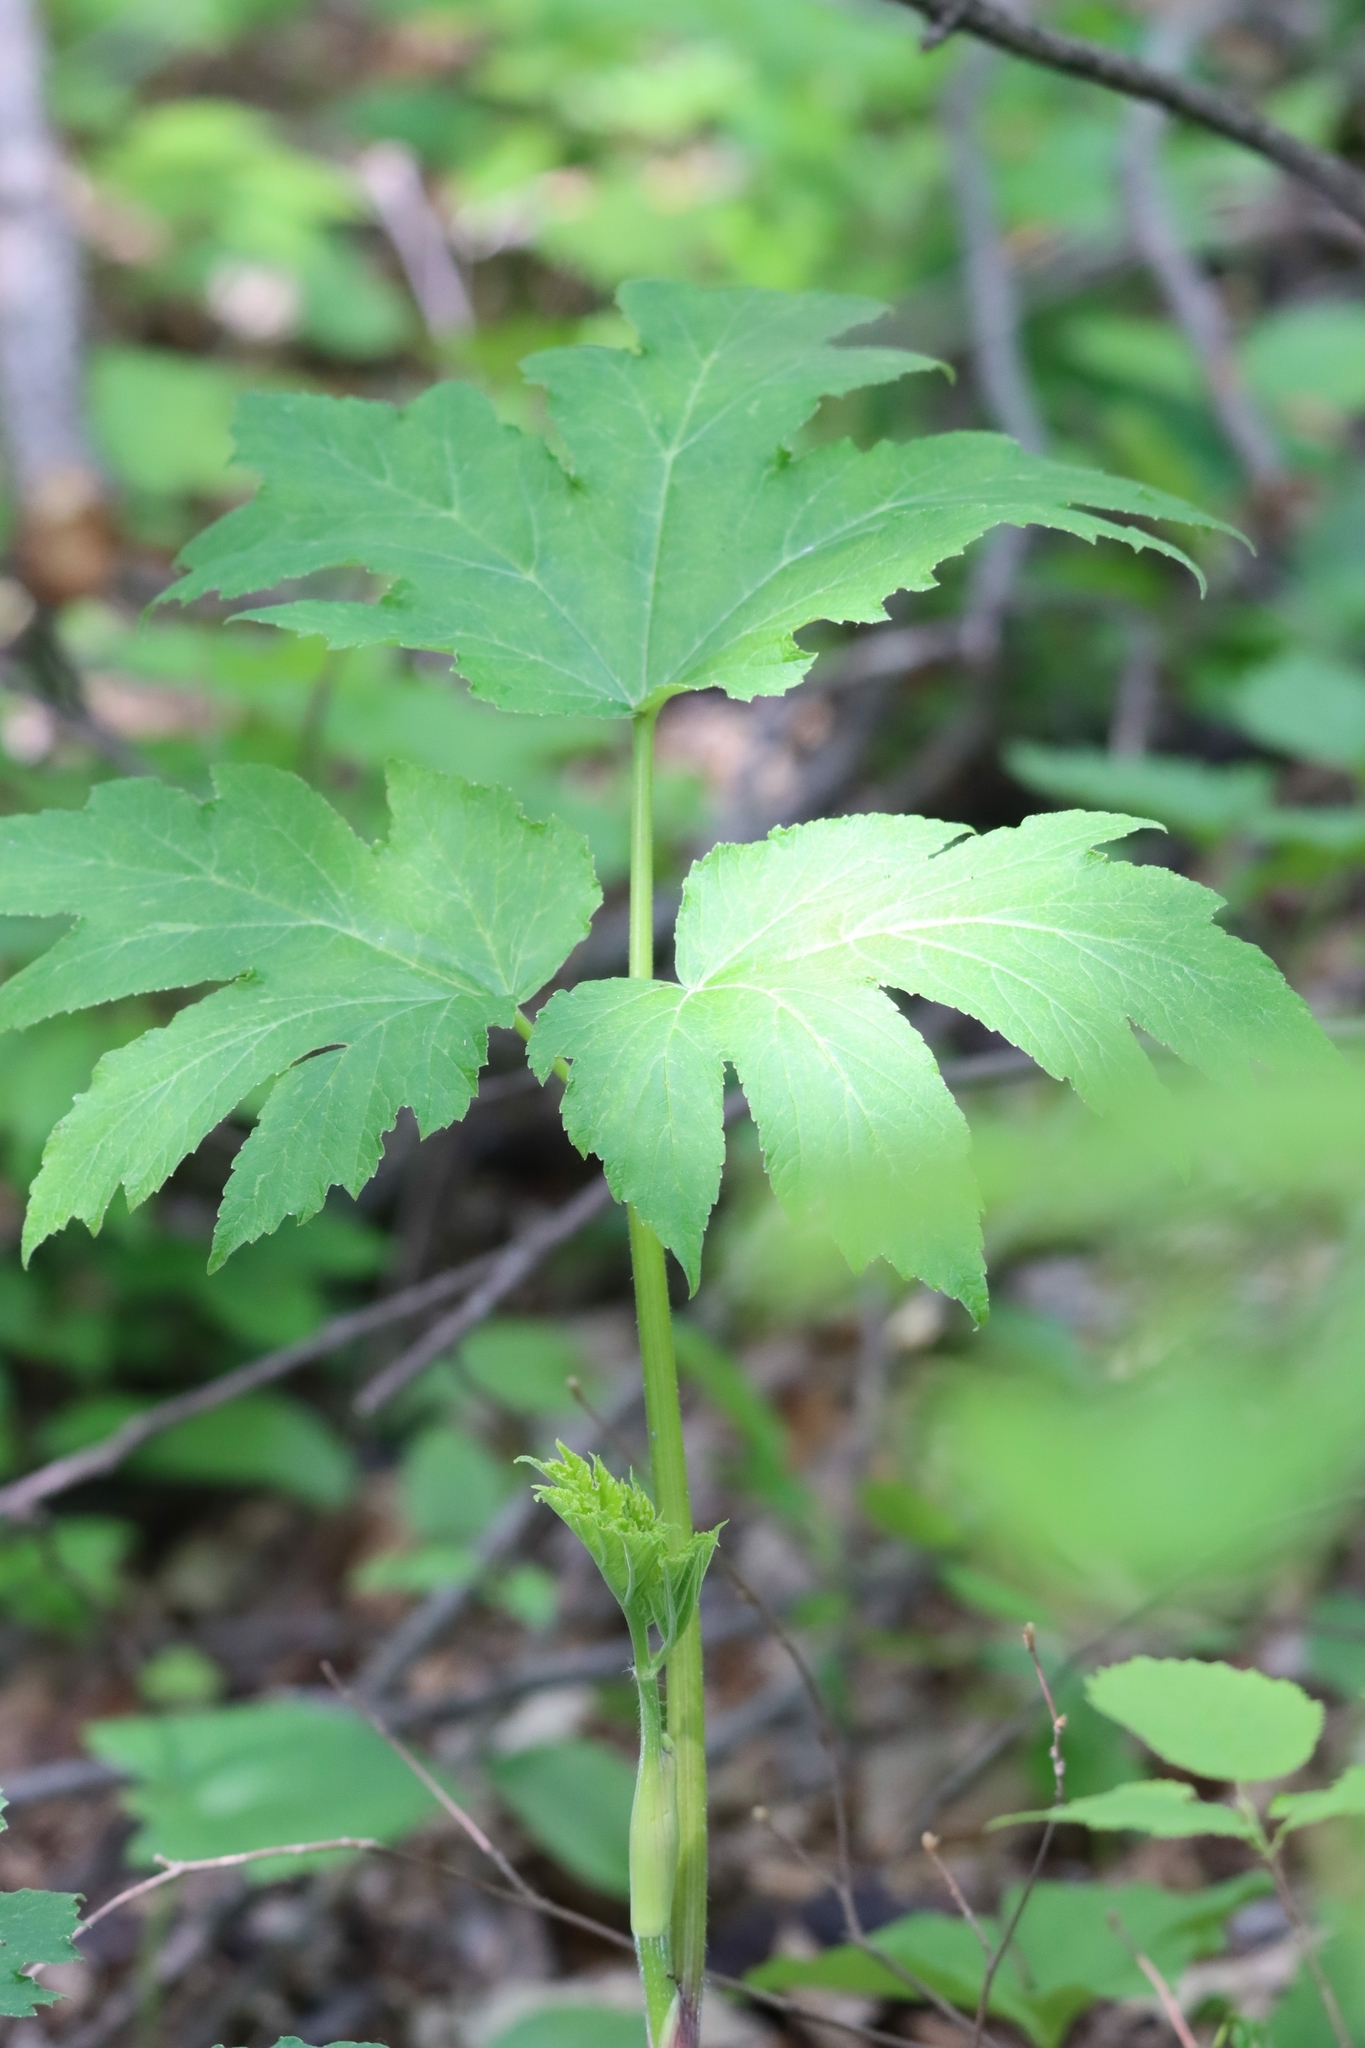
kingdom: Plantae
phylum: Tracheophyta
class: Magnoliopsida
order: Apiales
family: Apiaceae
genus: Heracleum
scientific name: Heracleum maximum
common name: American cow parsnip
